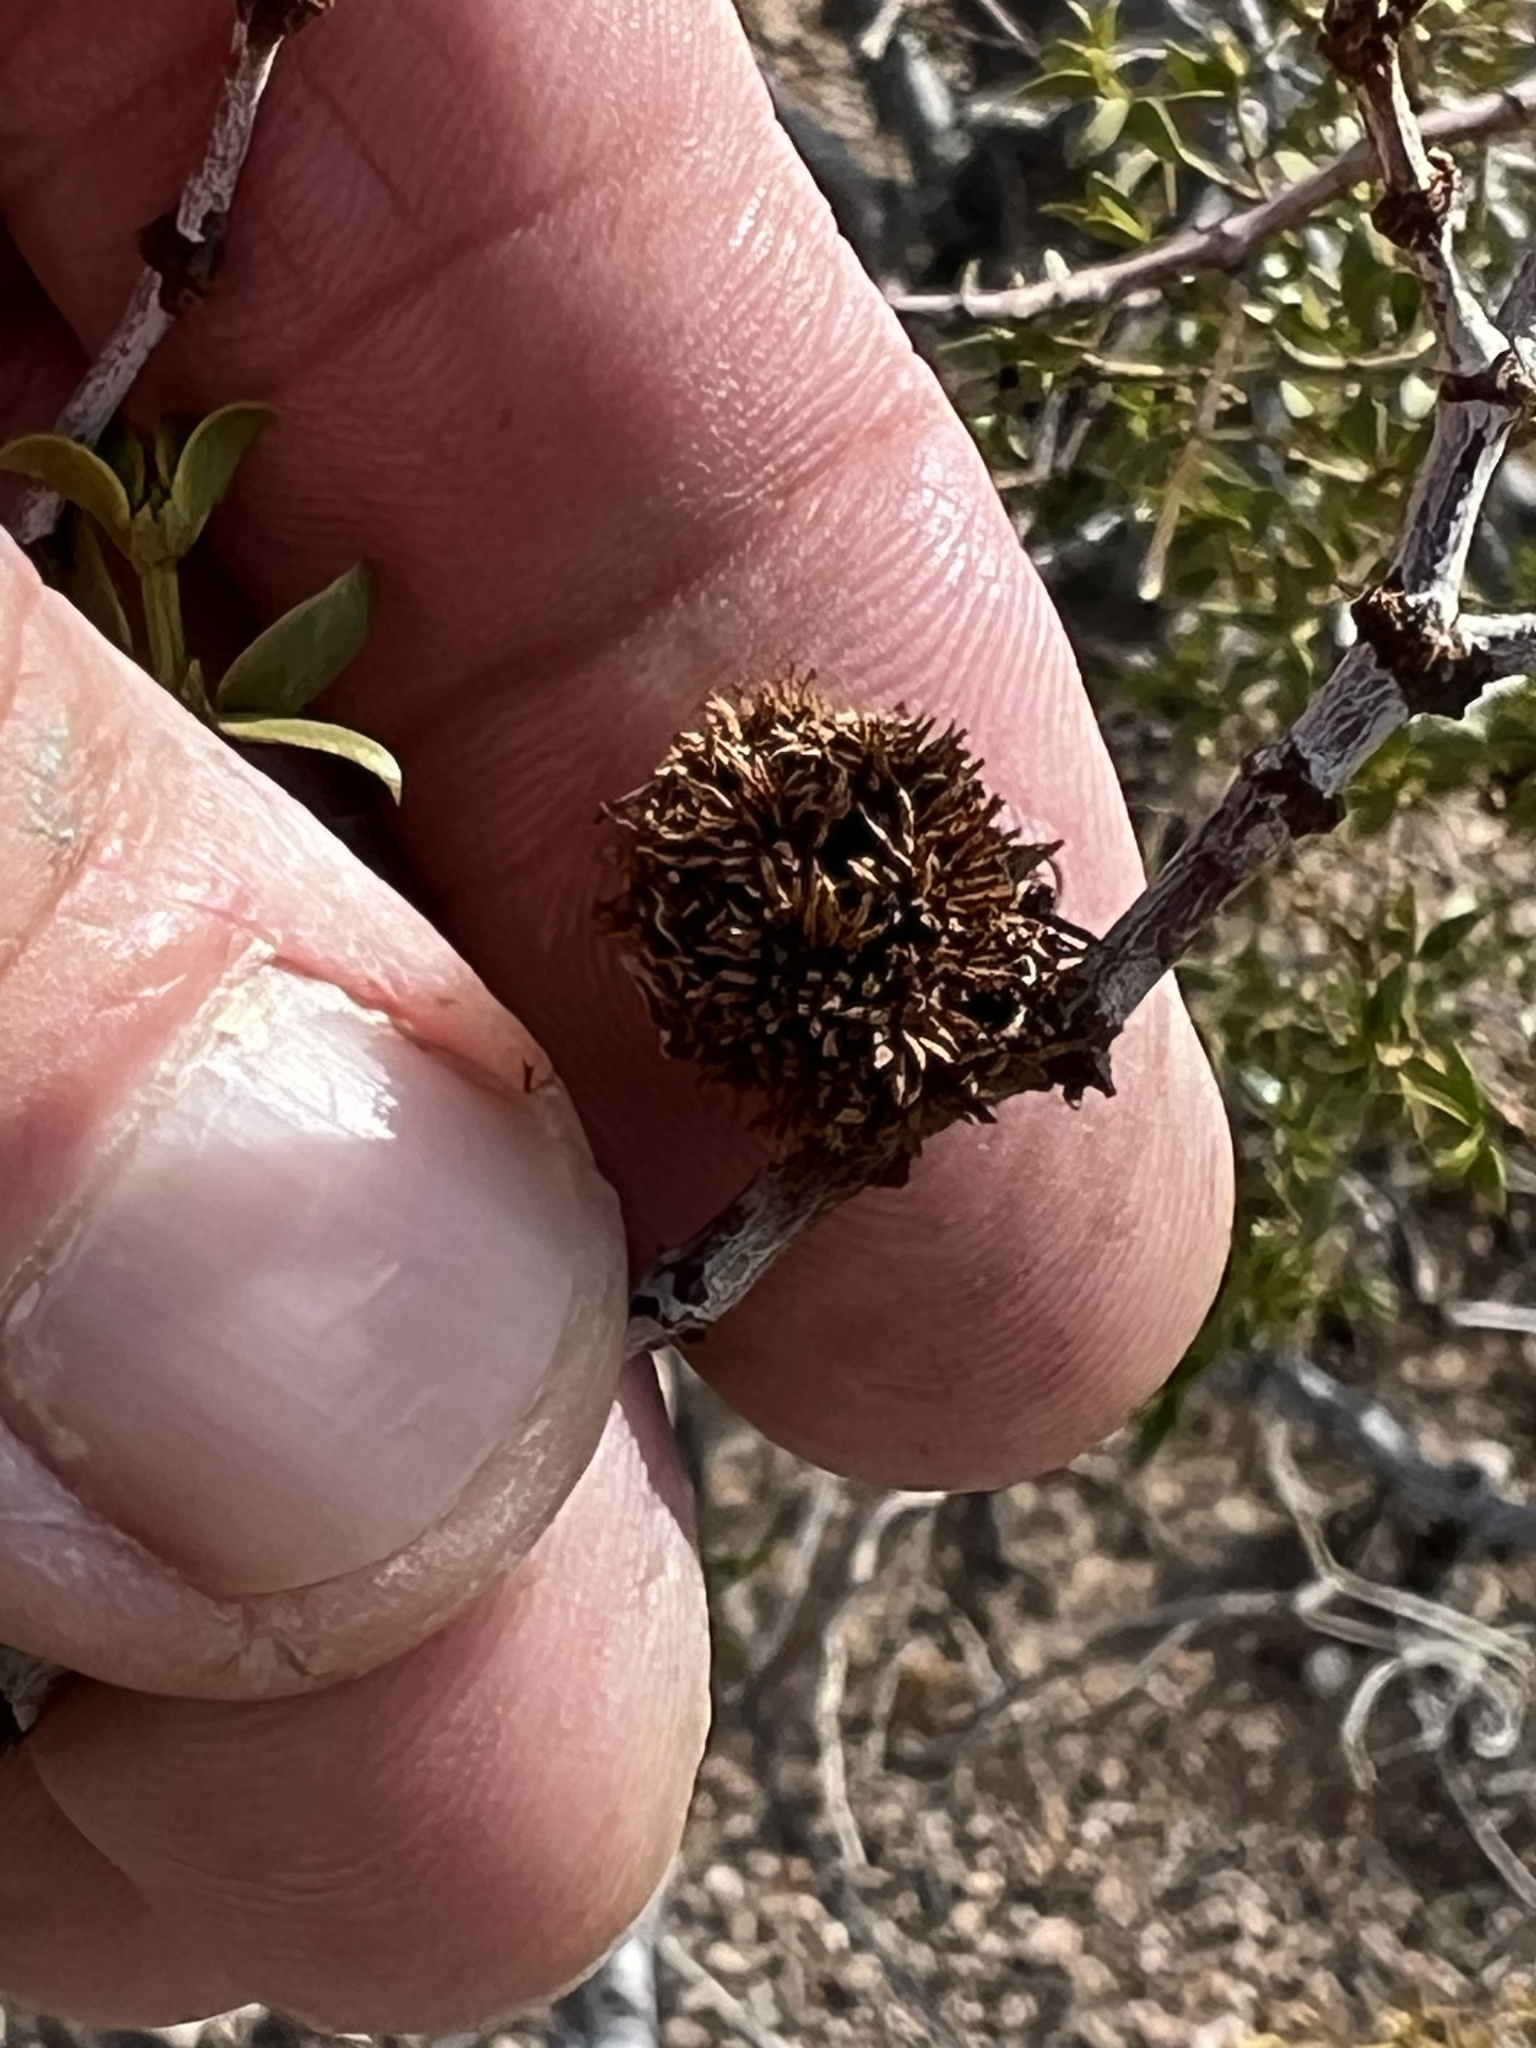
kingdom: Animalia
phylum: Arthropoda
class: Insecta
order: Diptera
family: Cecidomyiidae
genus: Asphondylia
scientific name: Asphondylia auripila
